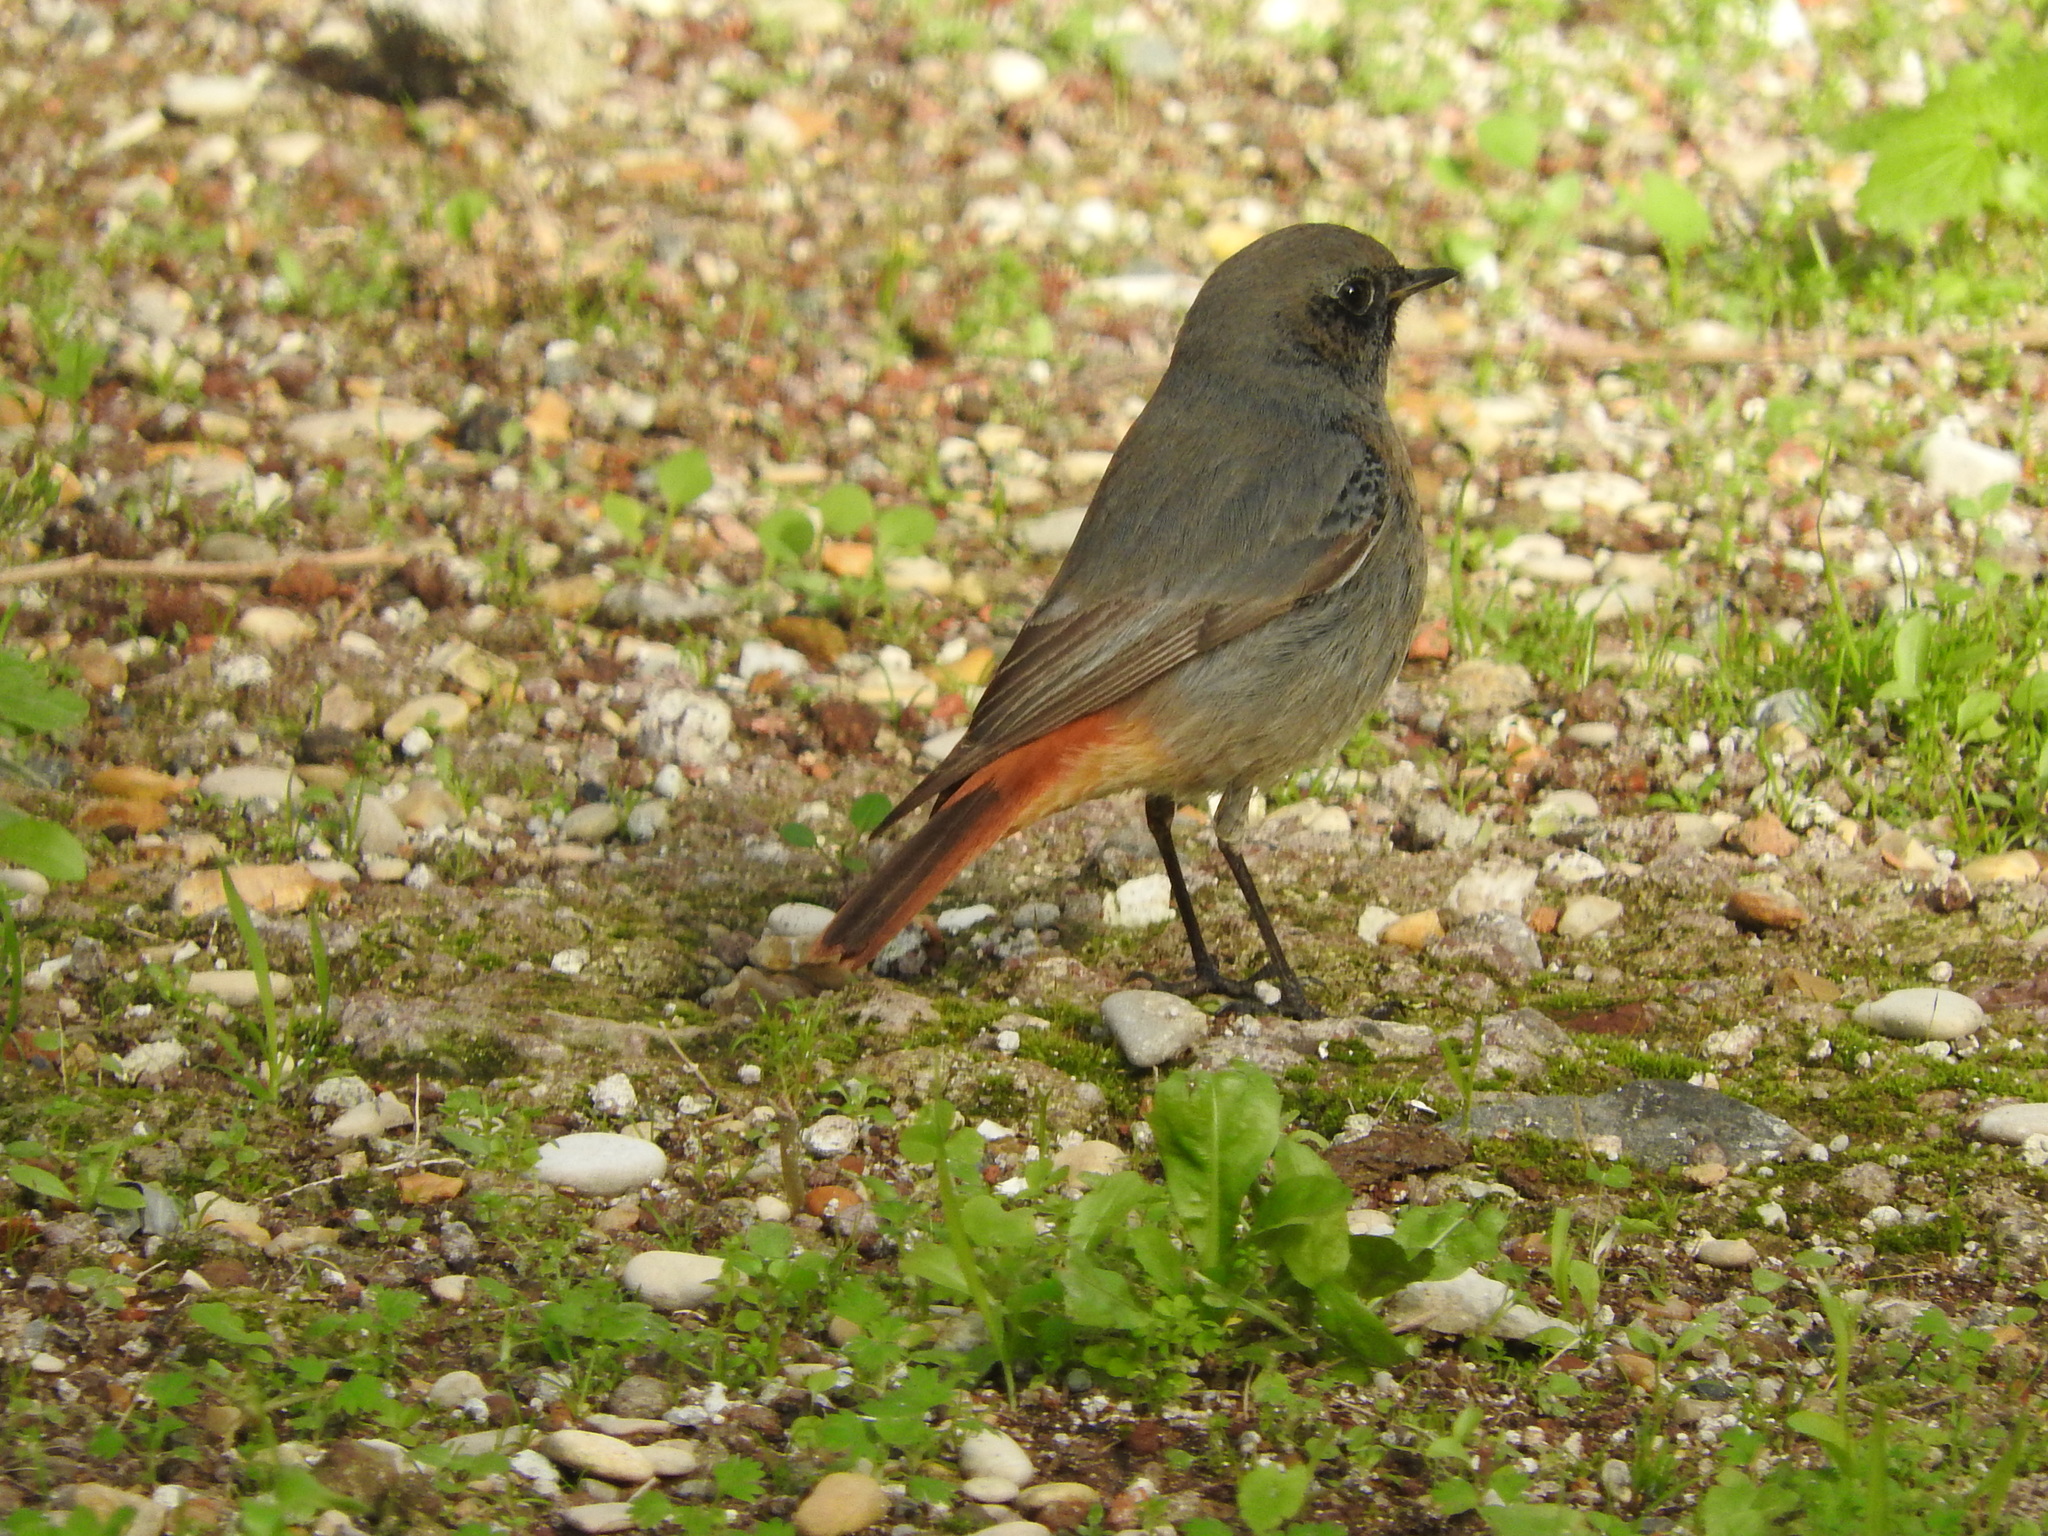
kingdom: Animalia
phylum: Chordata
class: Aves
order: Passeriformes
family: Muscicapidae
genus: Phoenicurus
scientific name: Phoenicurus ochruros
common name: Black redstart
